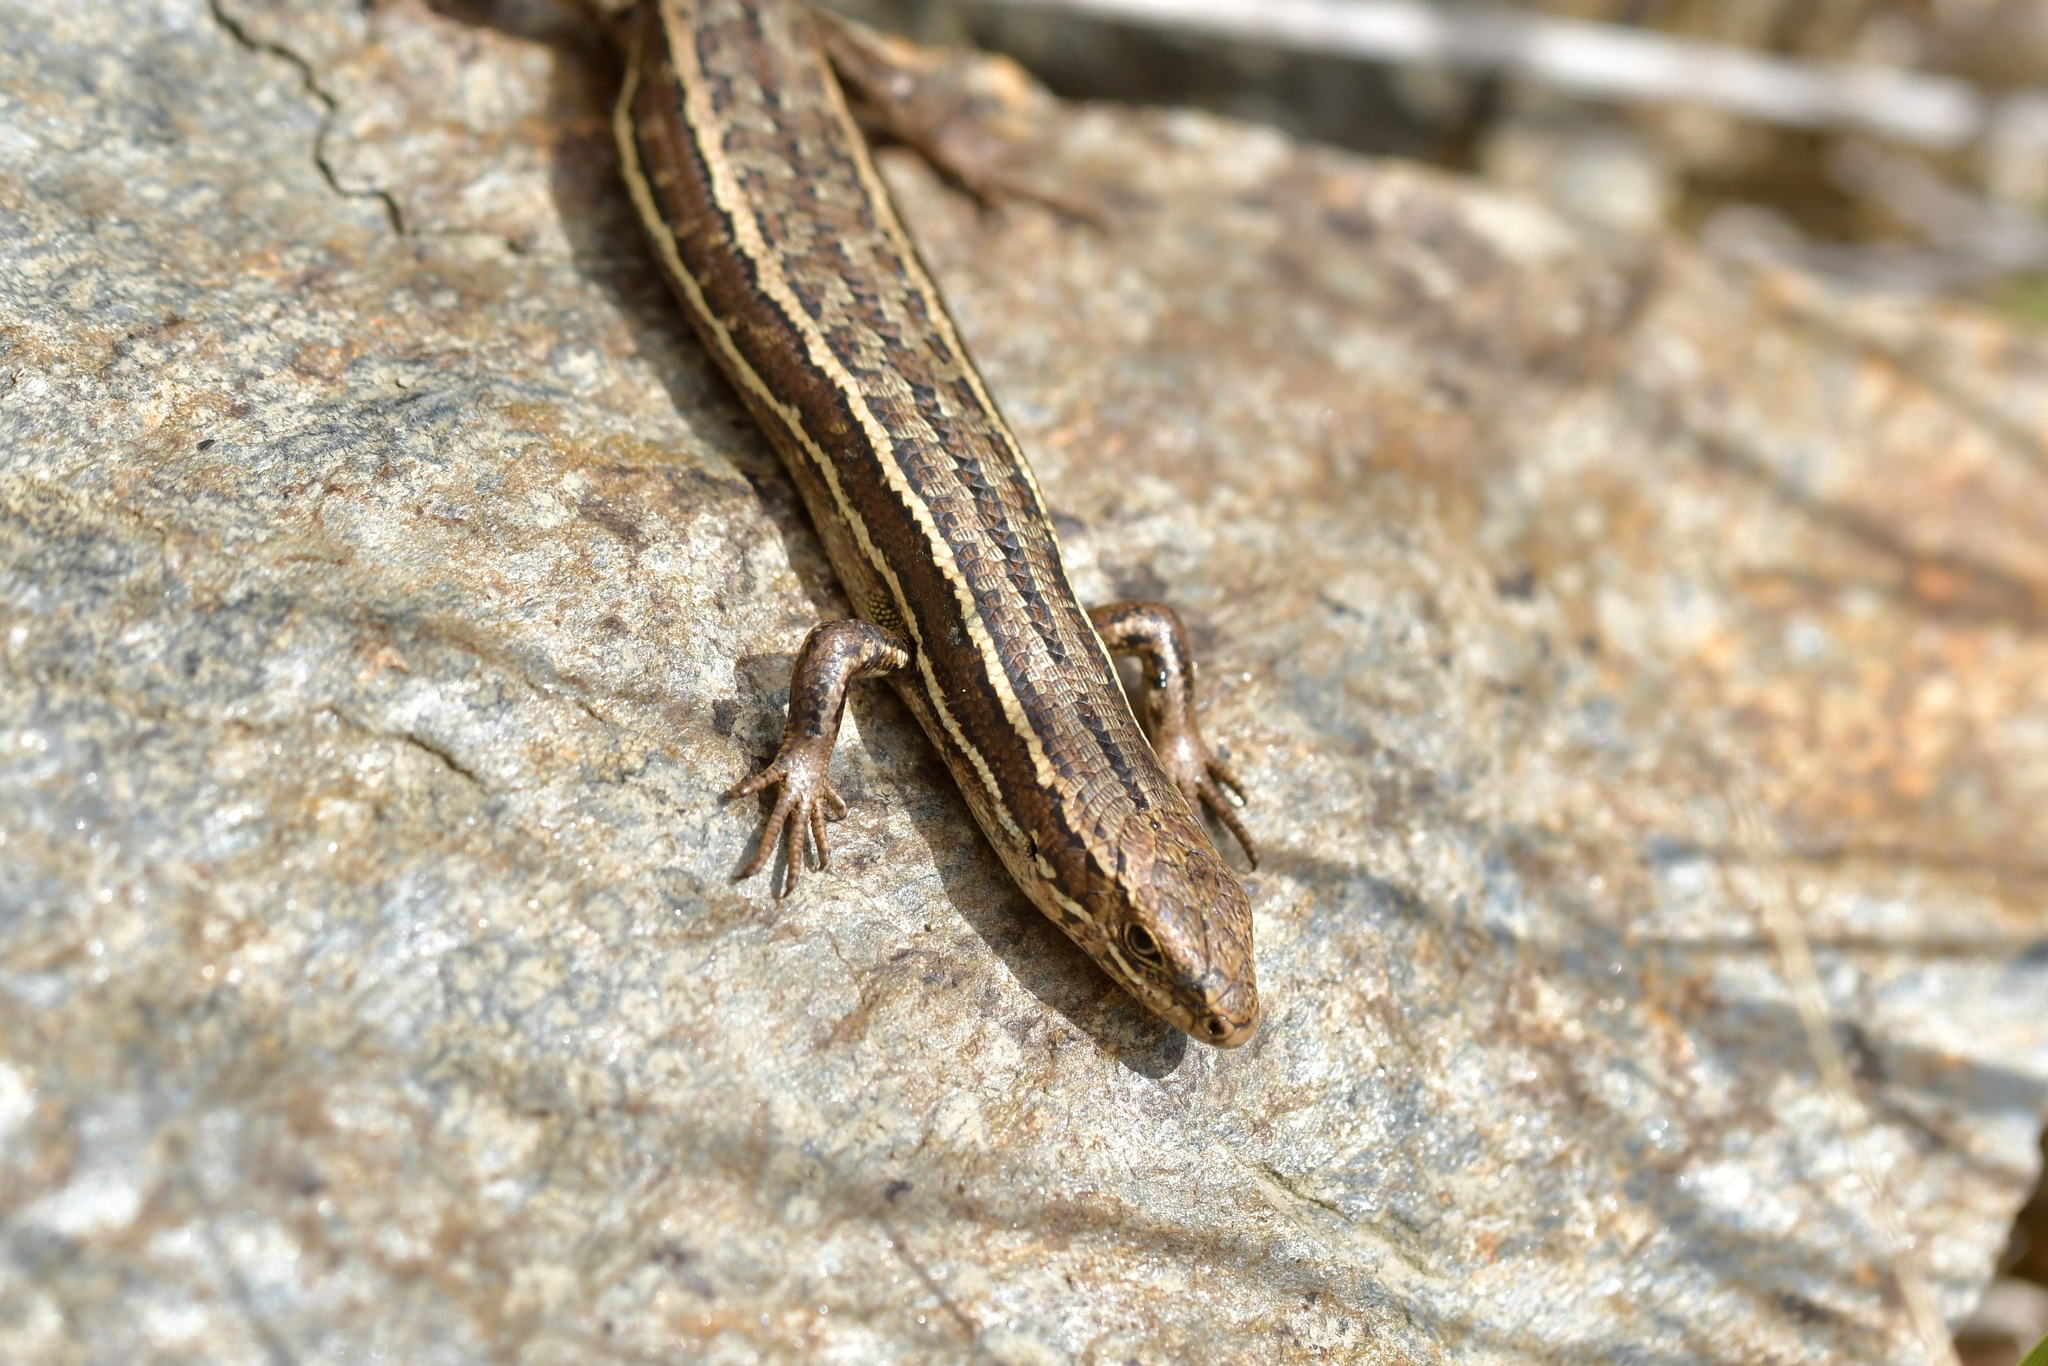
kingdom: Animalia
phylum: Chordata
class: Squamata
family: Scincidae
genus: Oligosoma
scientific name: Oligosoma maccanni
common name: Mccann’s skink
